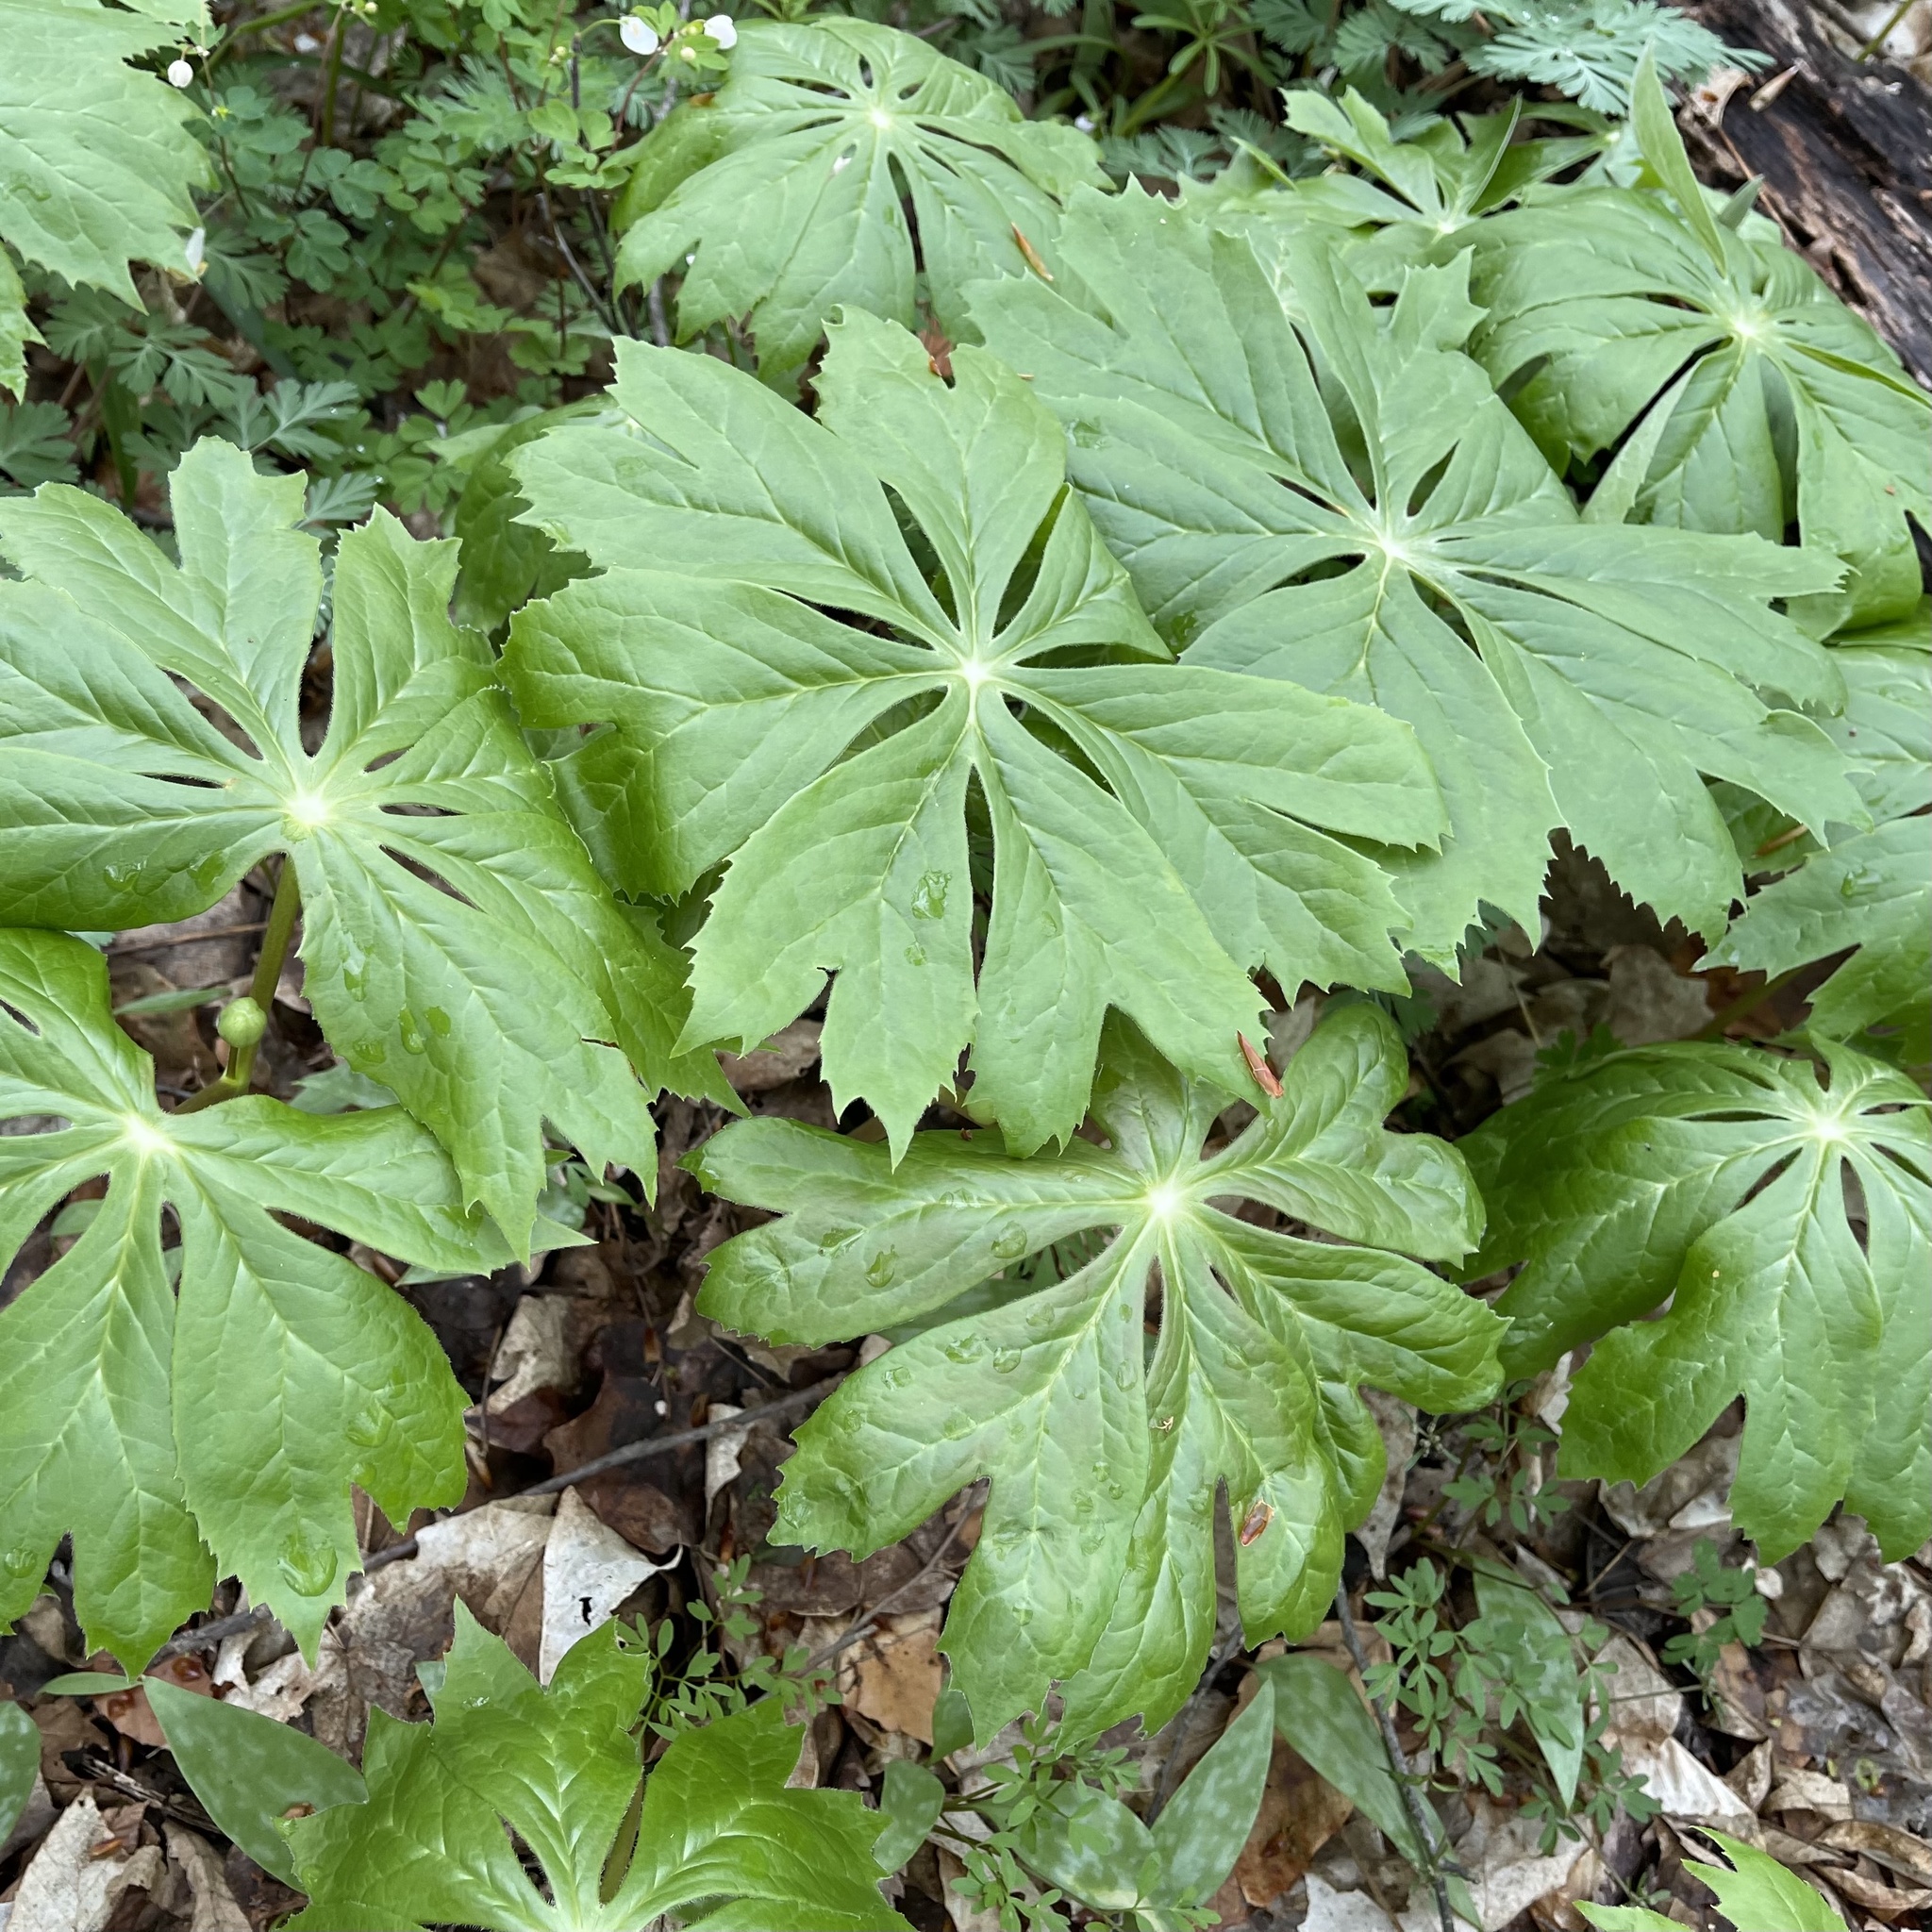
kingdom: Plantae
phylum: Tracheophyta
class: Magnoliopsida
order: Ranunculales
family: Berberidaceae
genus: Podophyllum
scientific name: Podophyllum peltatum
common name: Wild mandrake
